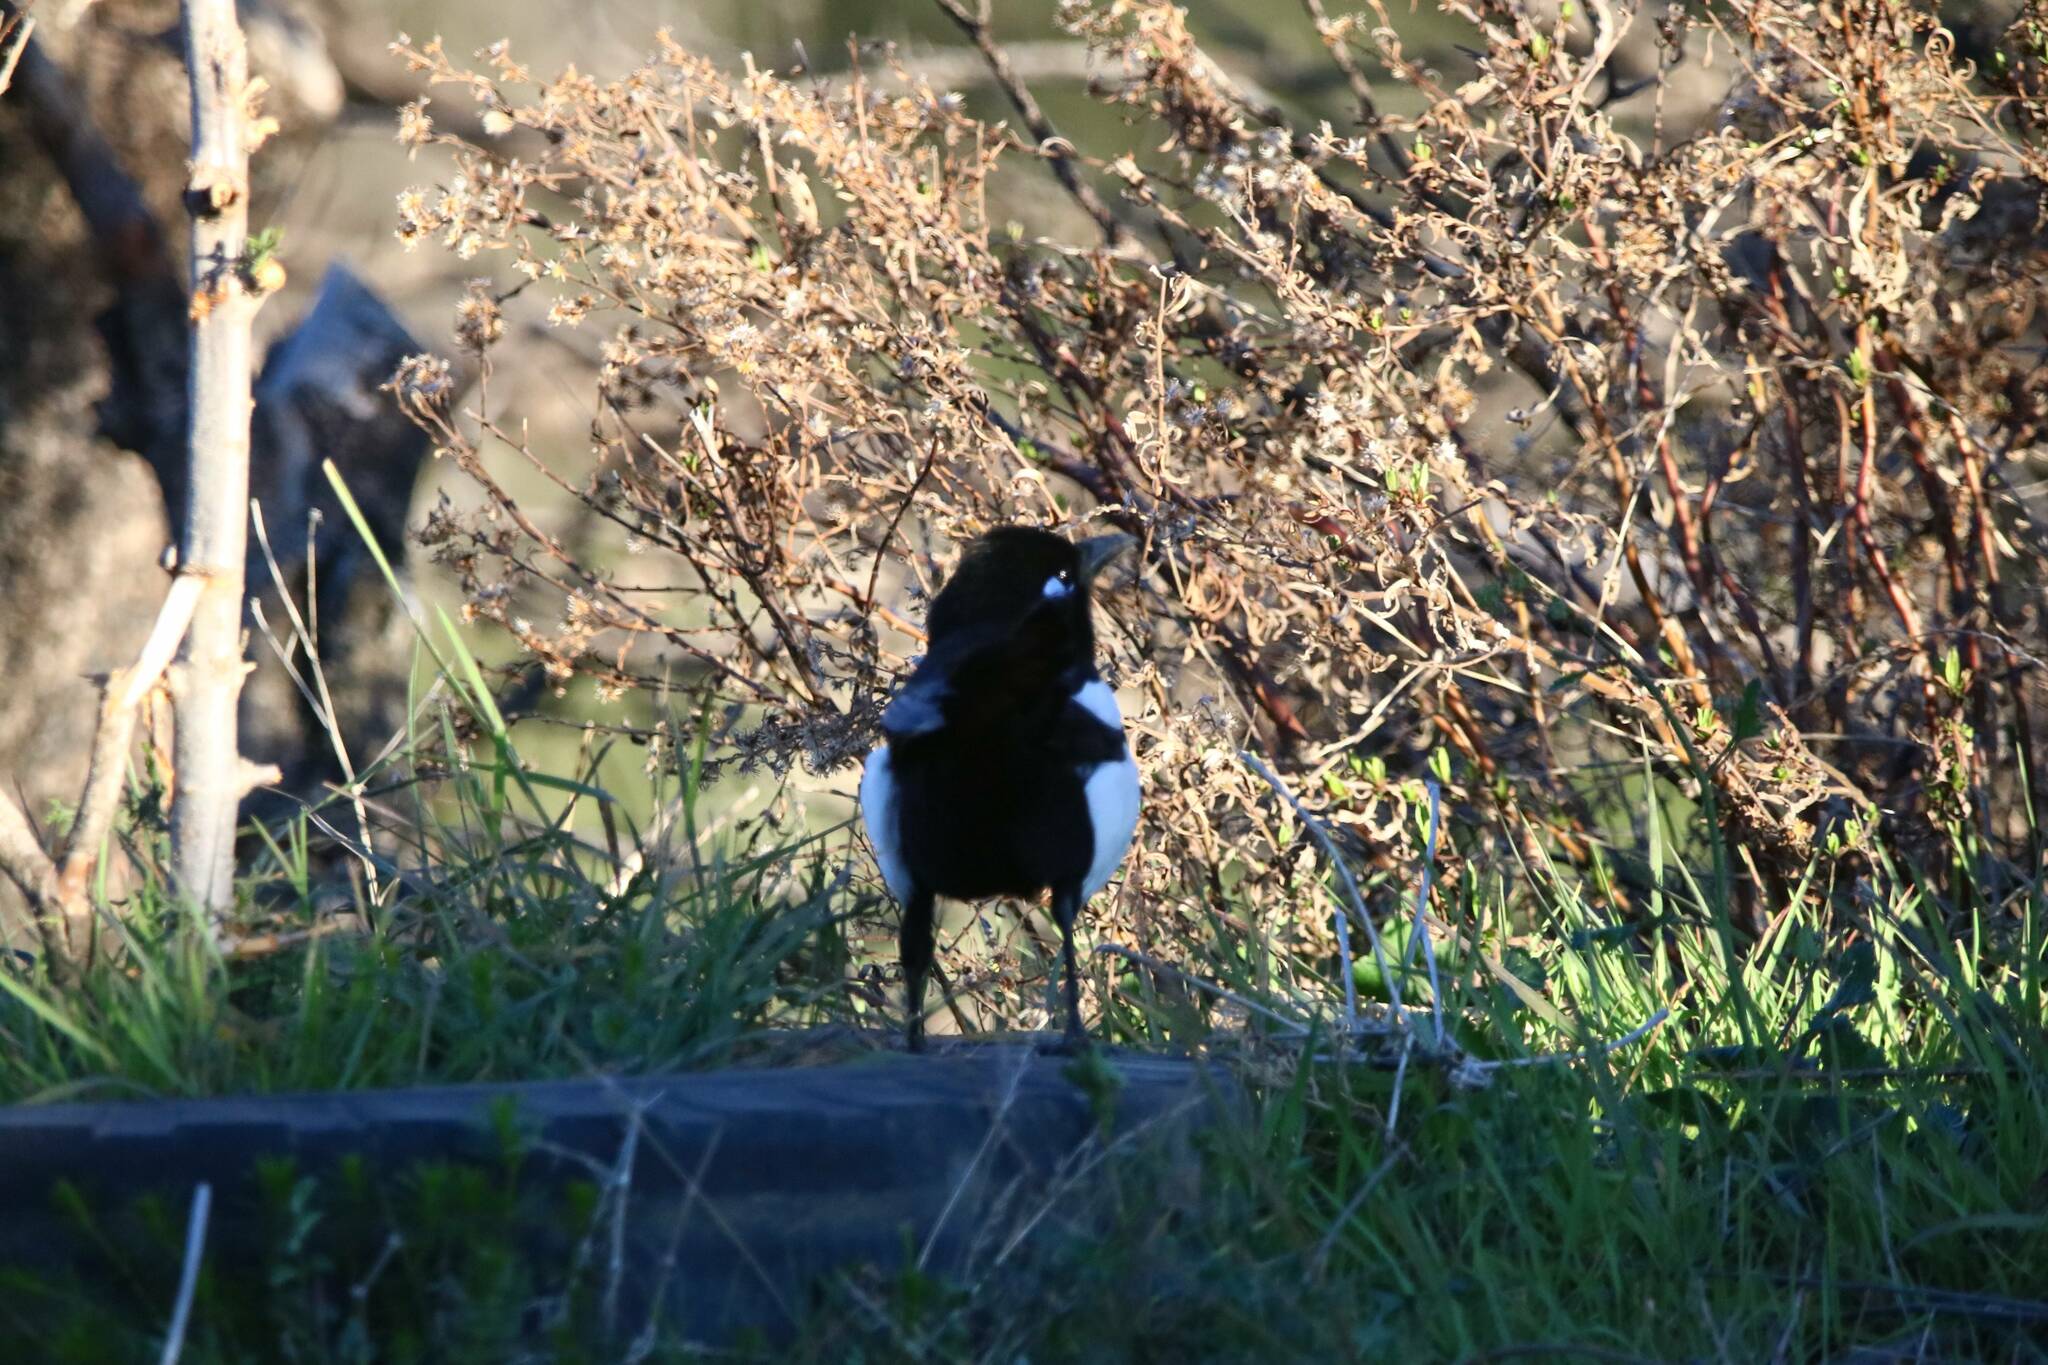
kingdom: Animalia
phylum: Chordata
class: Aves
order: Passeriformes
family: Corvidae
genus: Pica
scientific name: Pica mauritanica
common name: Maghreb magpie
